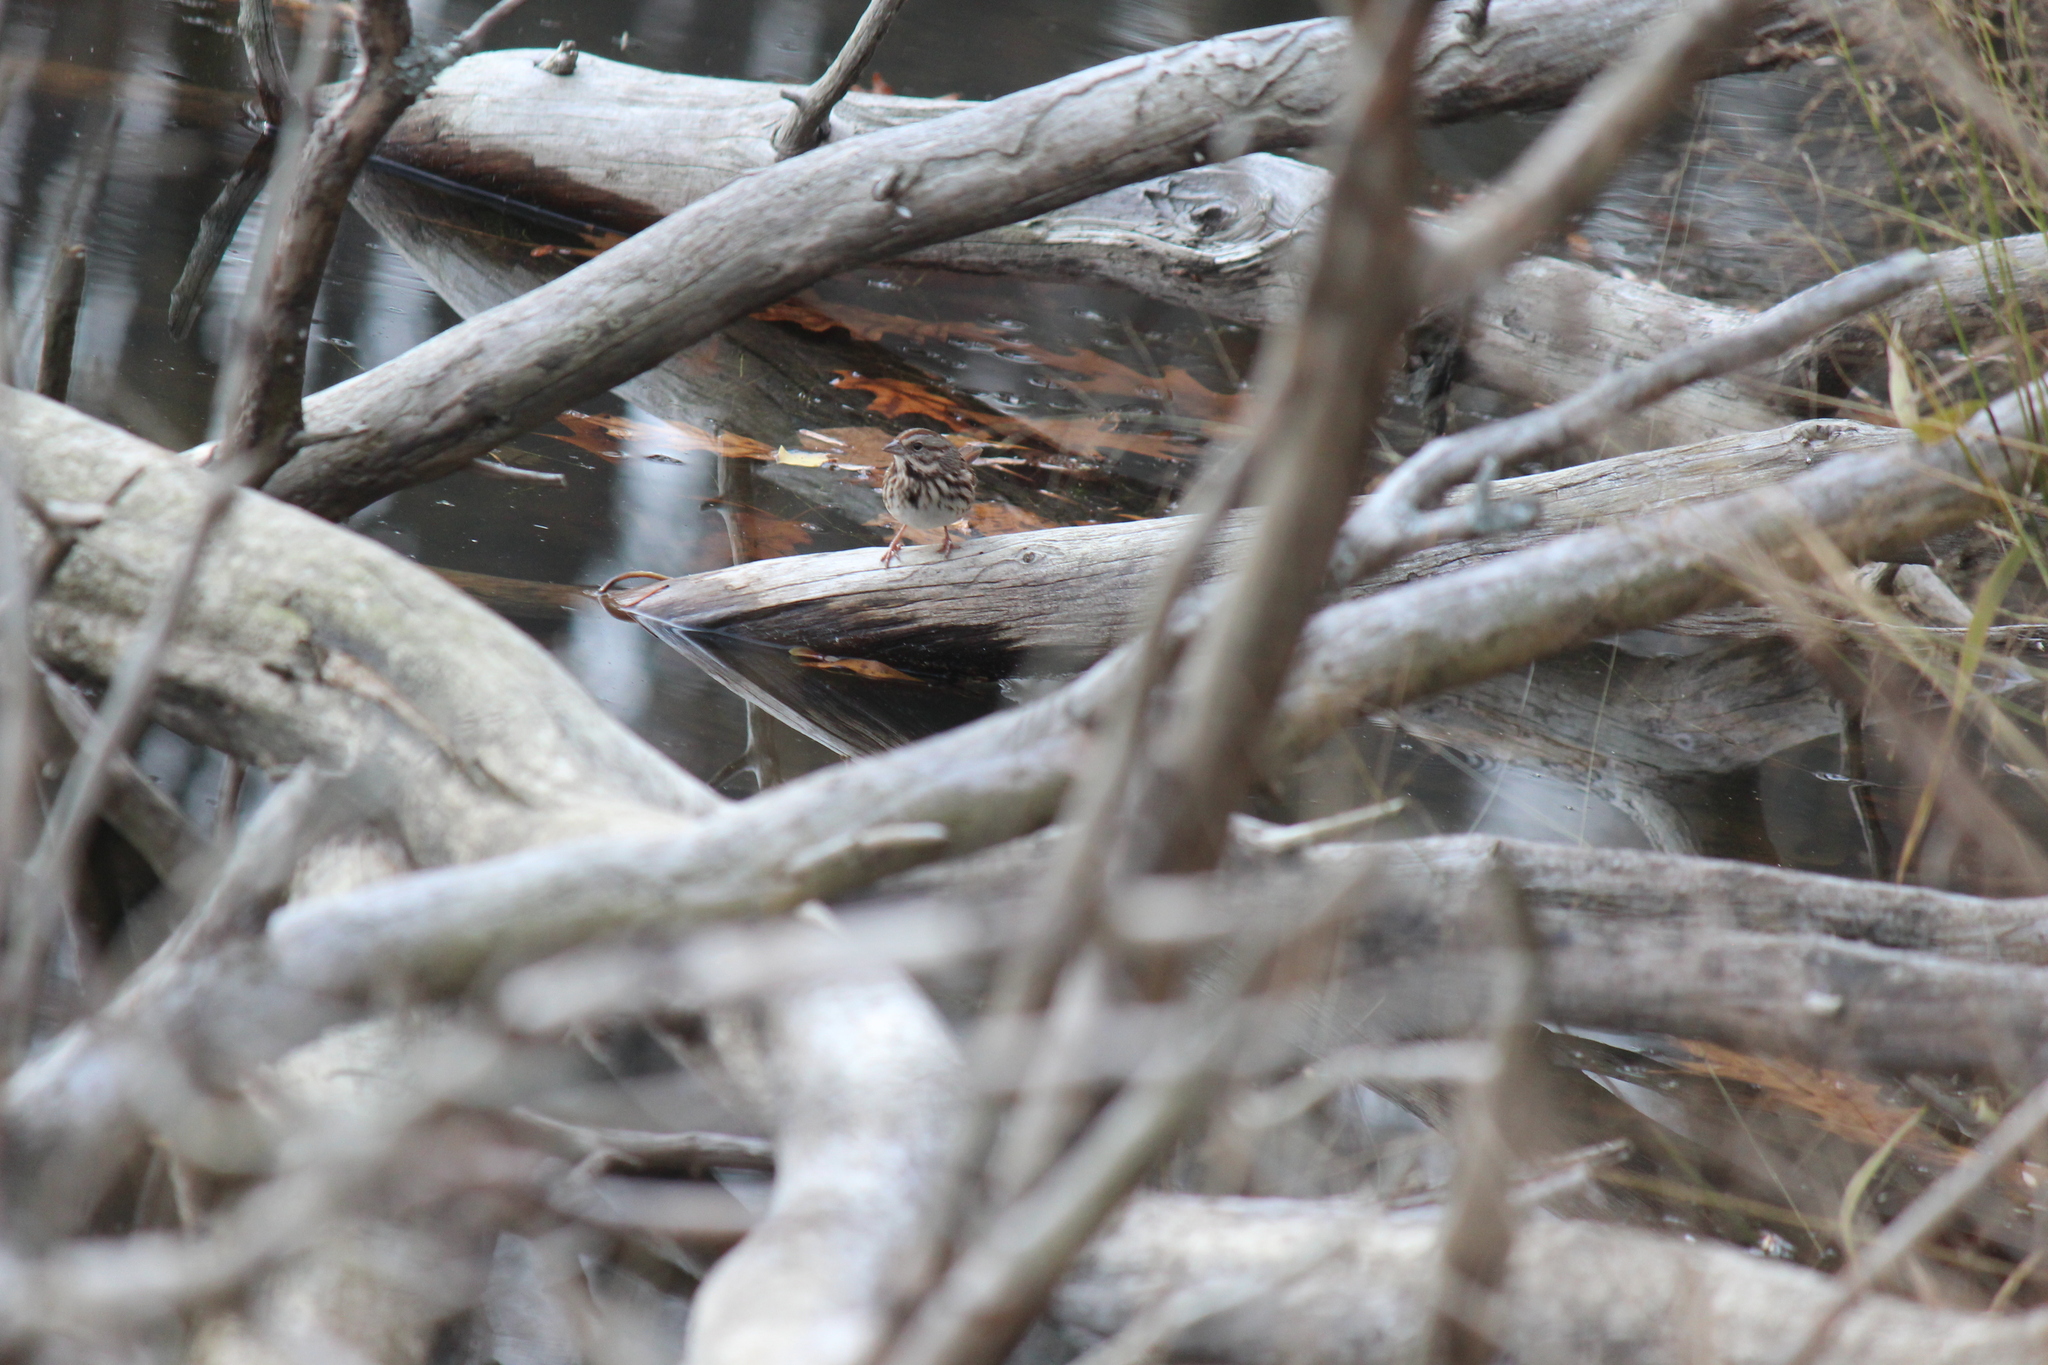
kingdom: Animalia
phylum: Chordata
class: Aves
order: Passeriformes
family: Passerellidae
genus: Melospiza
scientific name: Melospiza melodia
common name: Song sparrow
